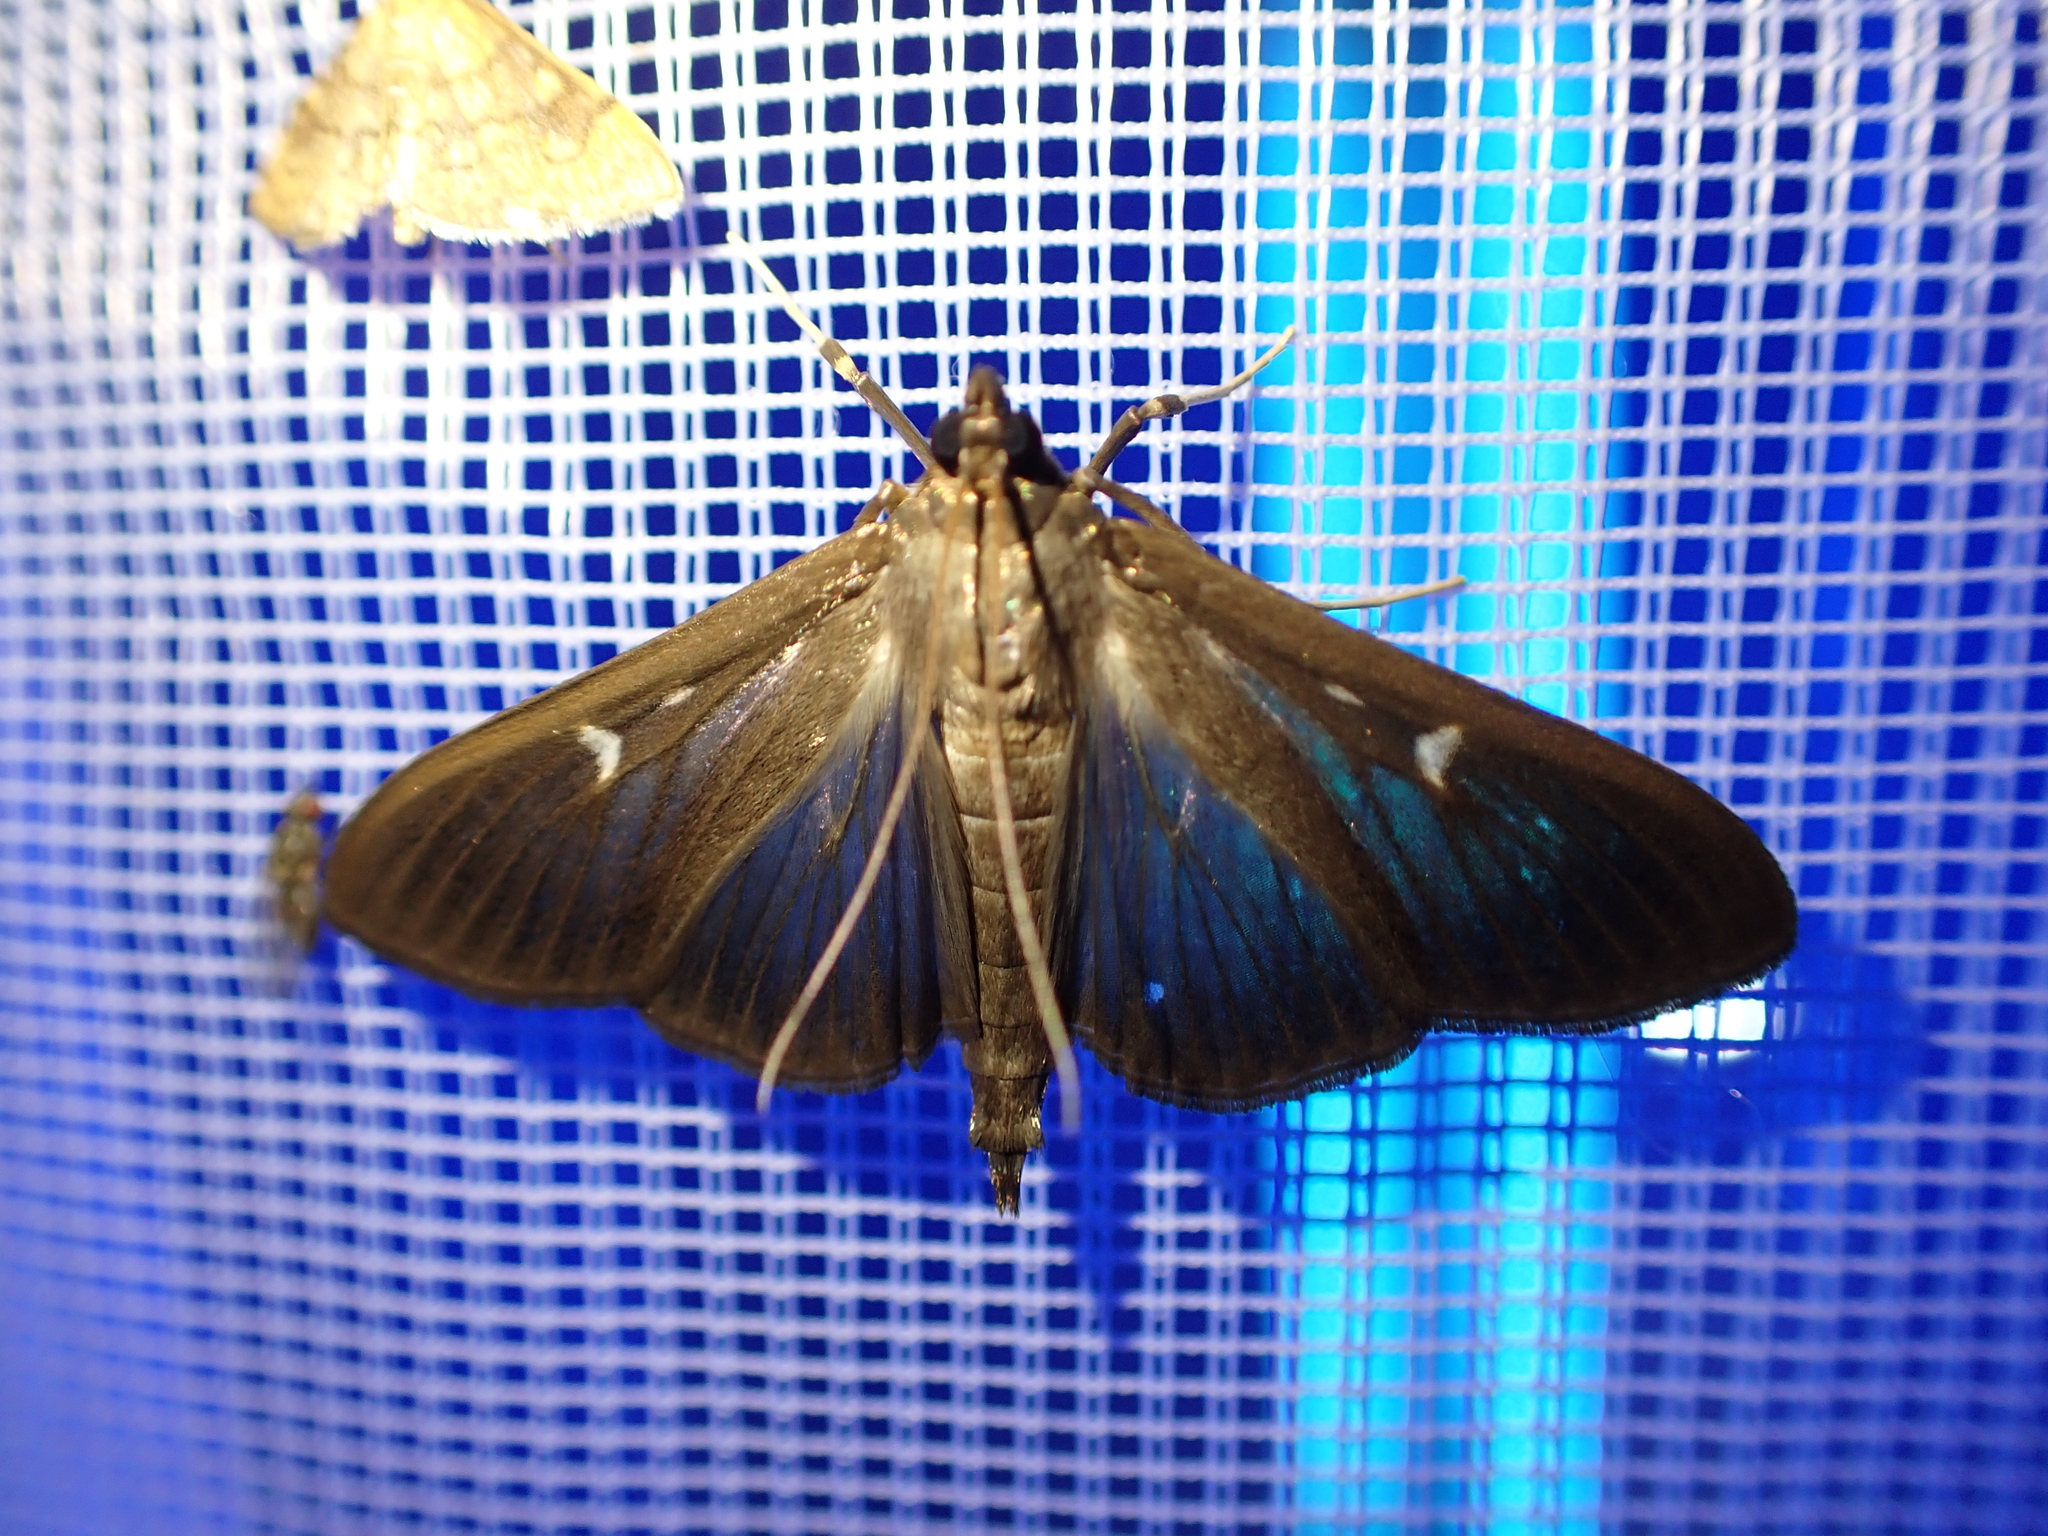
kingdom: Animalia
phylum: Arthropoda
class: Insecta
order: Lepidoptera
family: Crambidae
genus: Cydalima
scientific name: Cydalima perspectalis
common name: Box tree moth
